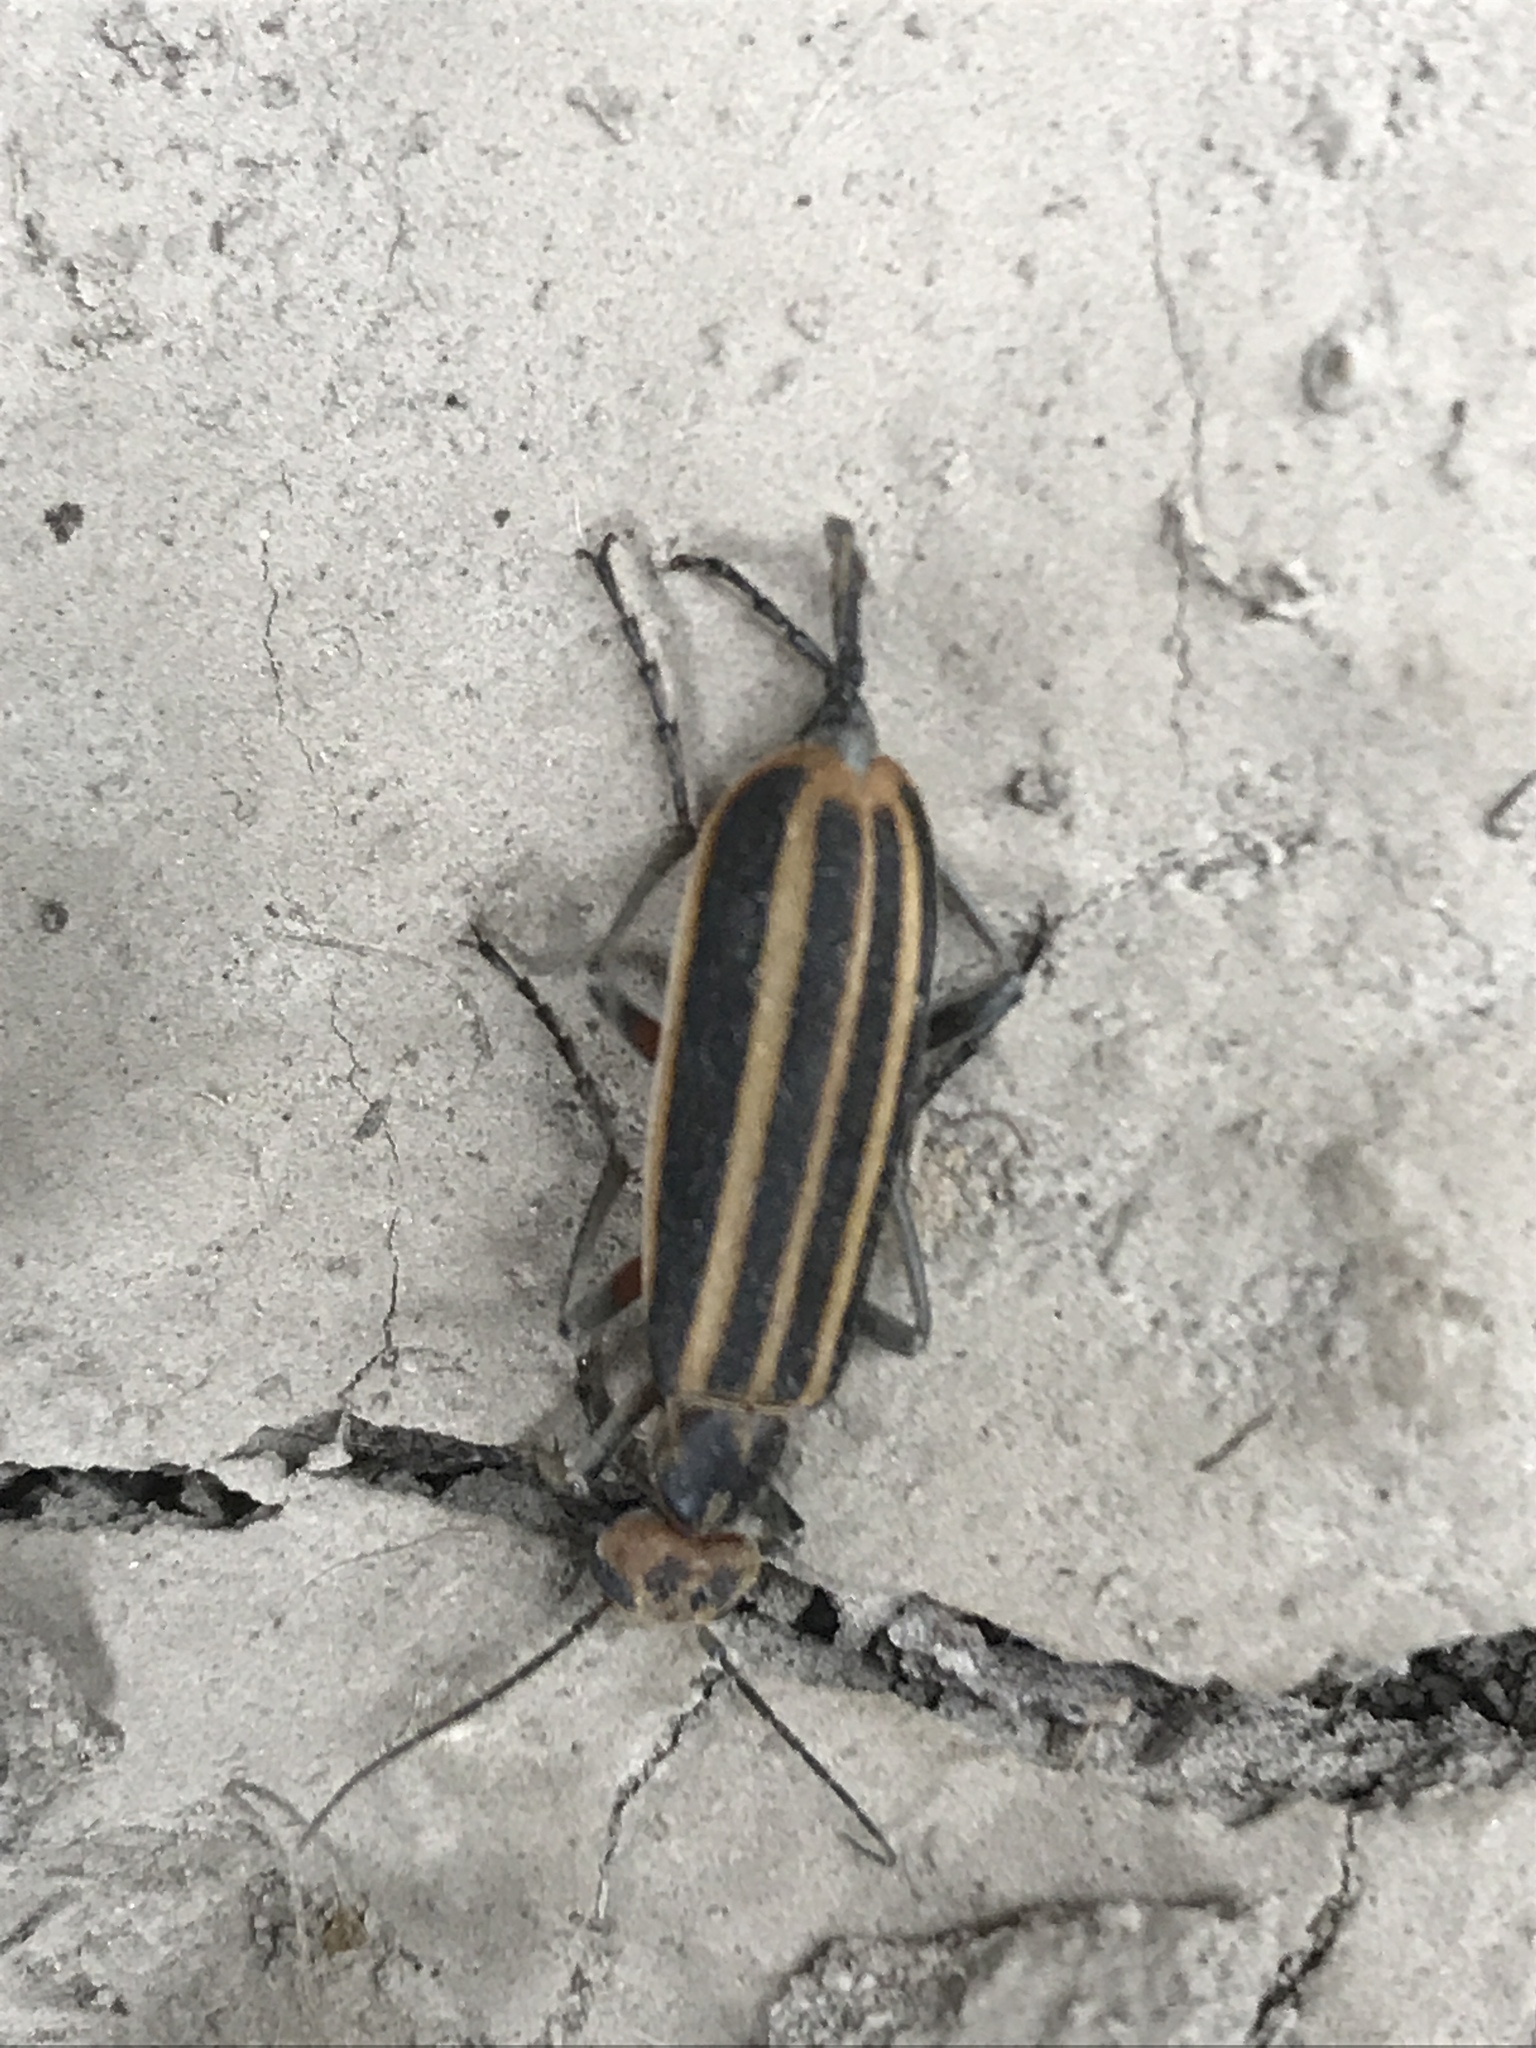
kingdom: Animalia
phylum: Arthropoda
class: Insecta
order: Coleoptera
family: Meloidae
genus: Epicauta
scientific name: Epicauta vittata
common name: Old-fashioned potato beetle
